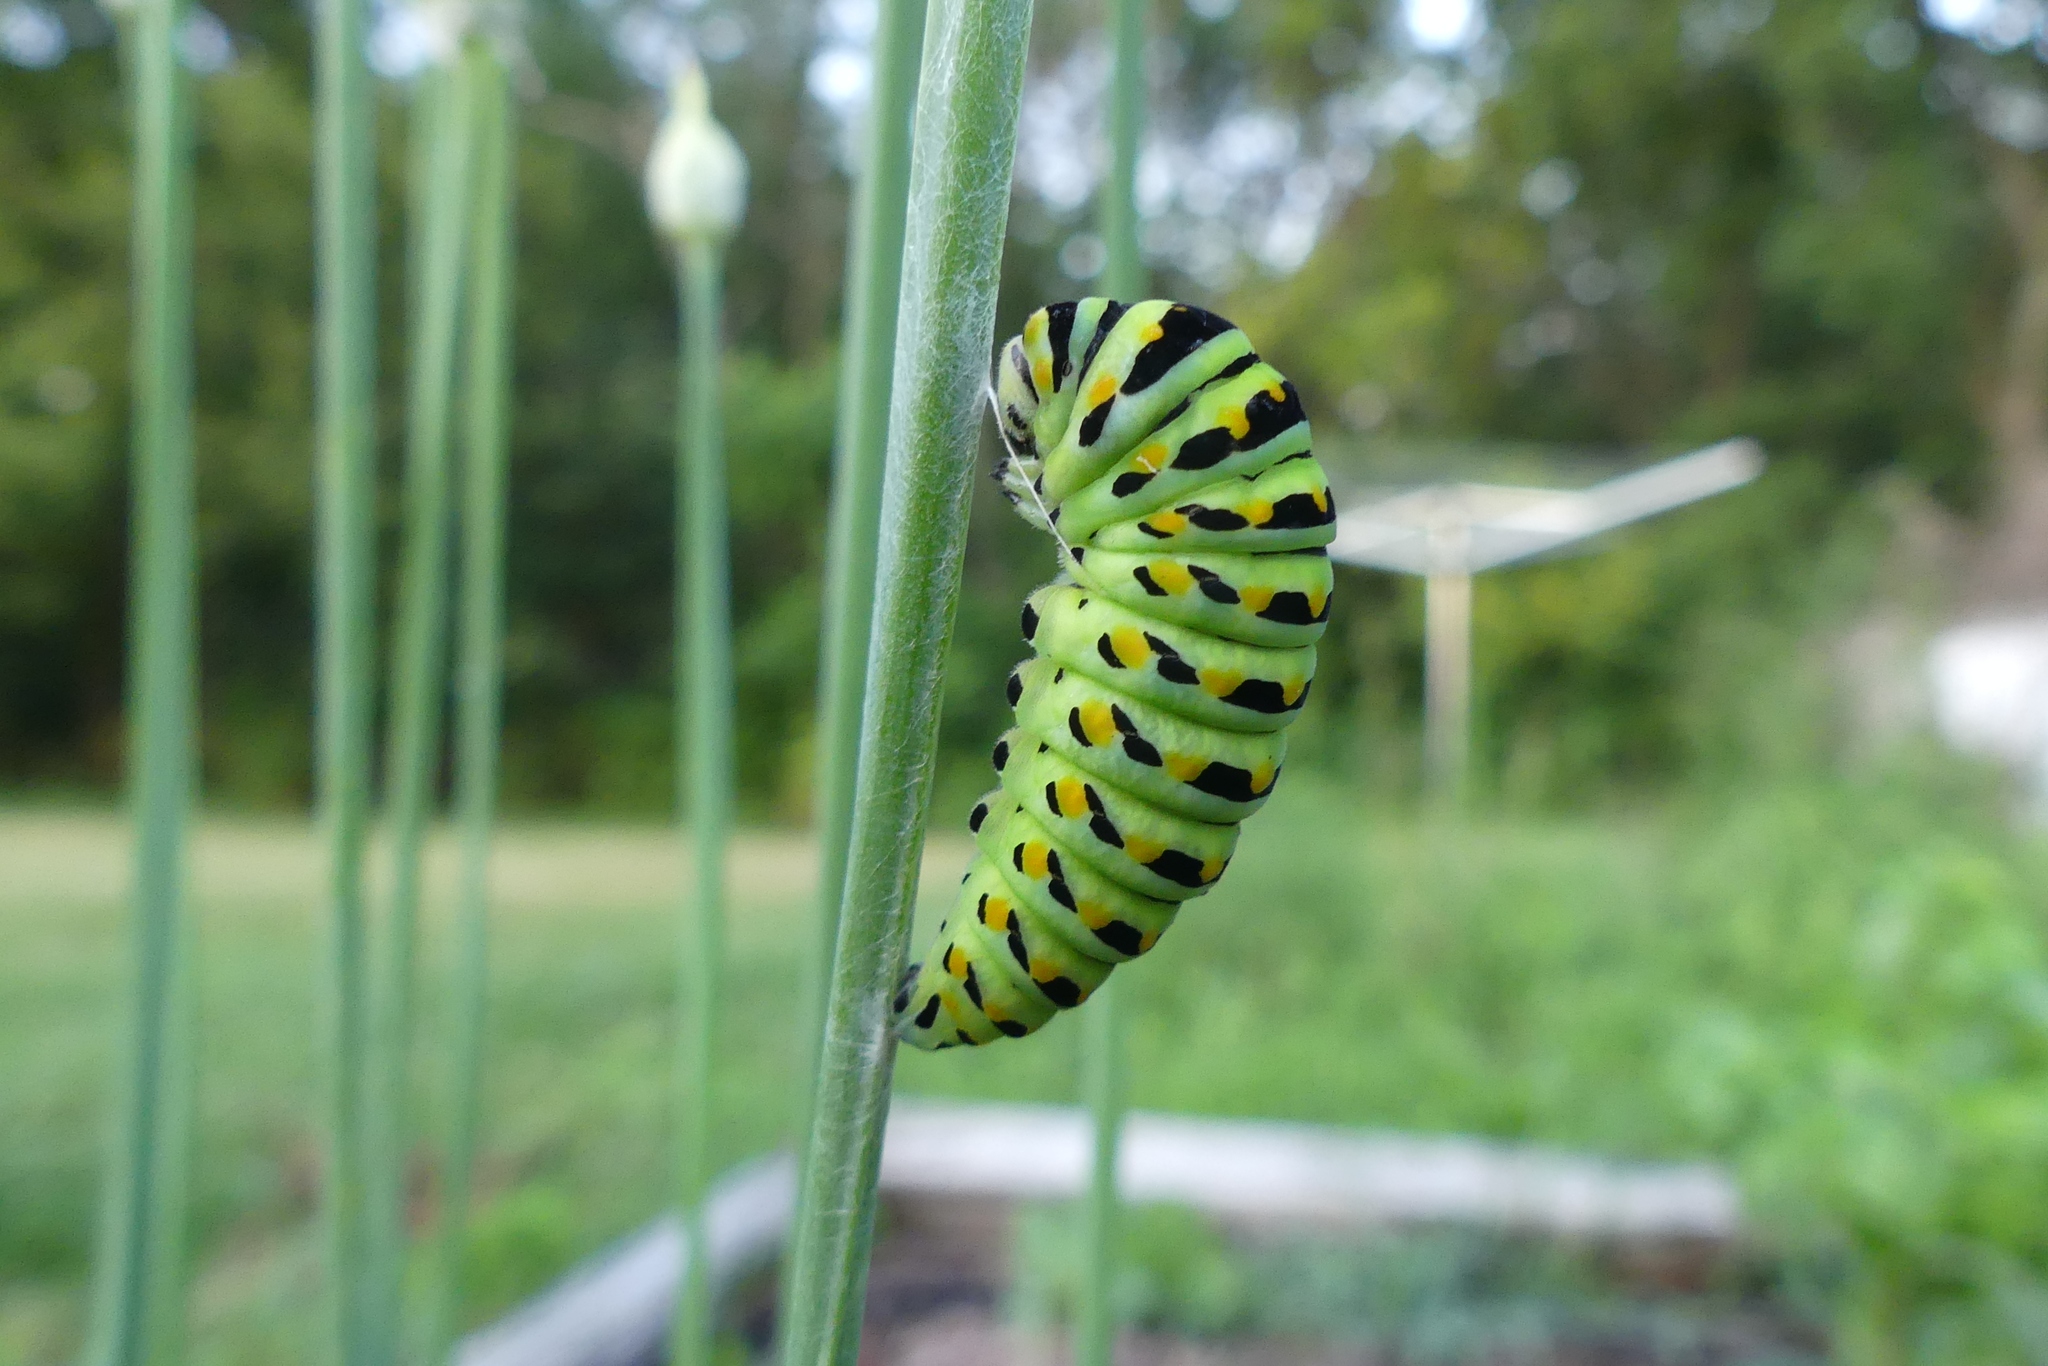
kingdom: Animalia
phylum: Arthropoda
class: Insecta
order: Lepidoptera
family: Papilionidae
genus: Papilio
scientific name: Papilio polyxenes
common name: Black swallowtail
